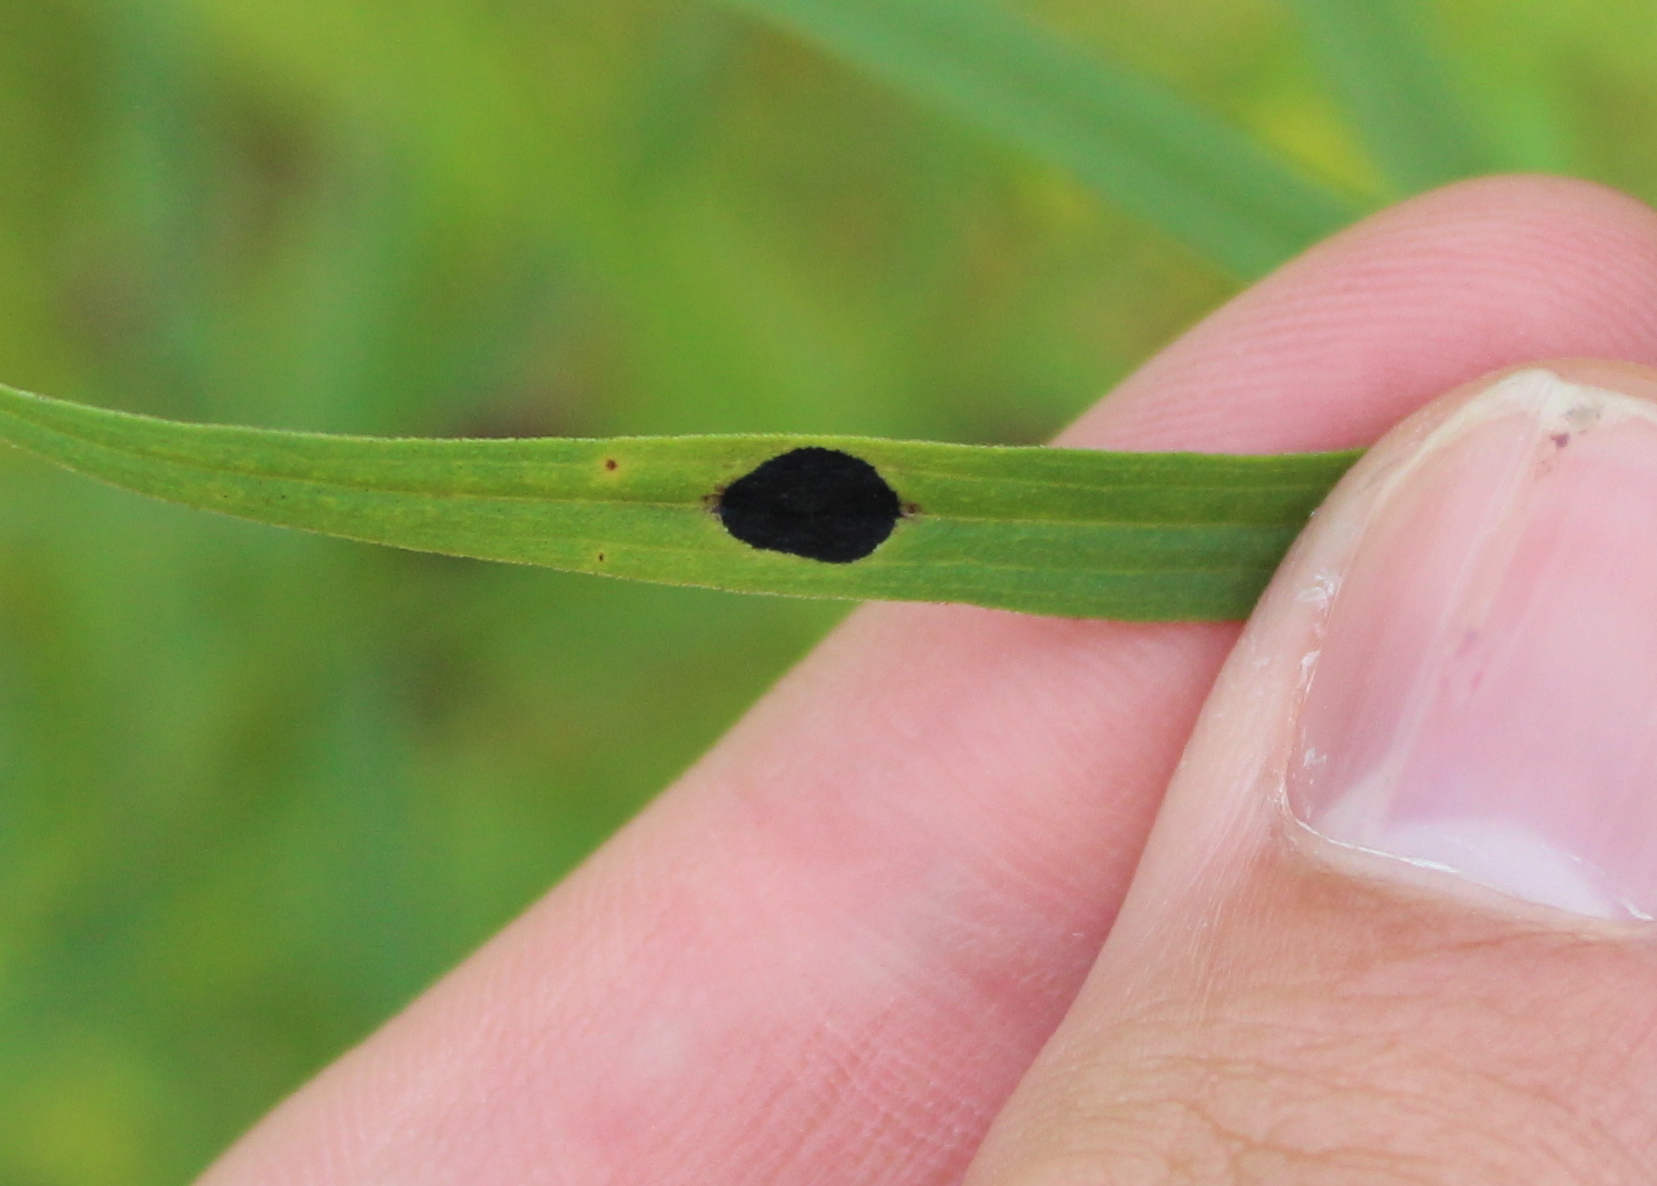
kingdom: Animalia
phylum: Arthropoda
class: Insecta
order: Diptera
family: Cecidomyiidae
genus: Asteromyia
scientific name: Asteromyia euthamiae
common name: Euthamia leaf gall midge
